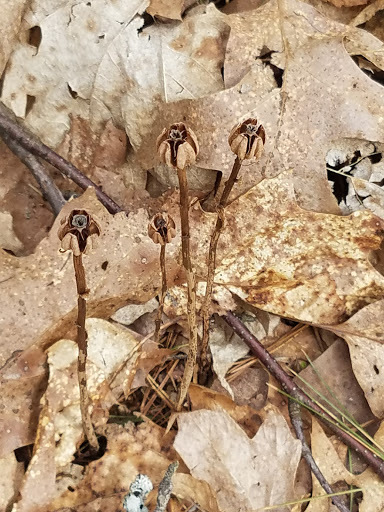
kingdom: Plantae
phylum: Tracheophyta
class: Magnoliopsida
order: Ericales
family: Ericaceae
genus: Monotropa
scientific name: Monotropa uniflora
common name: Convulsion root
